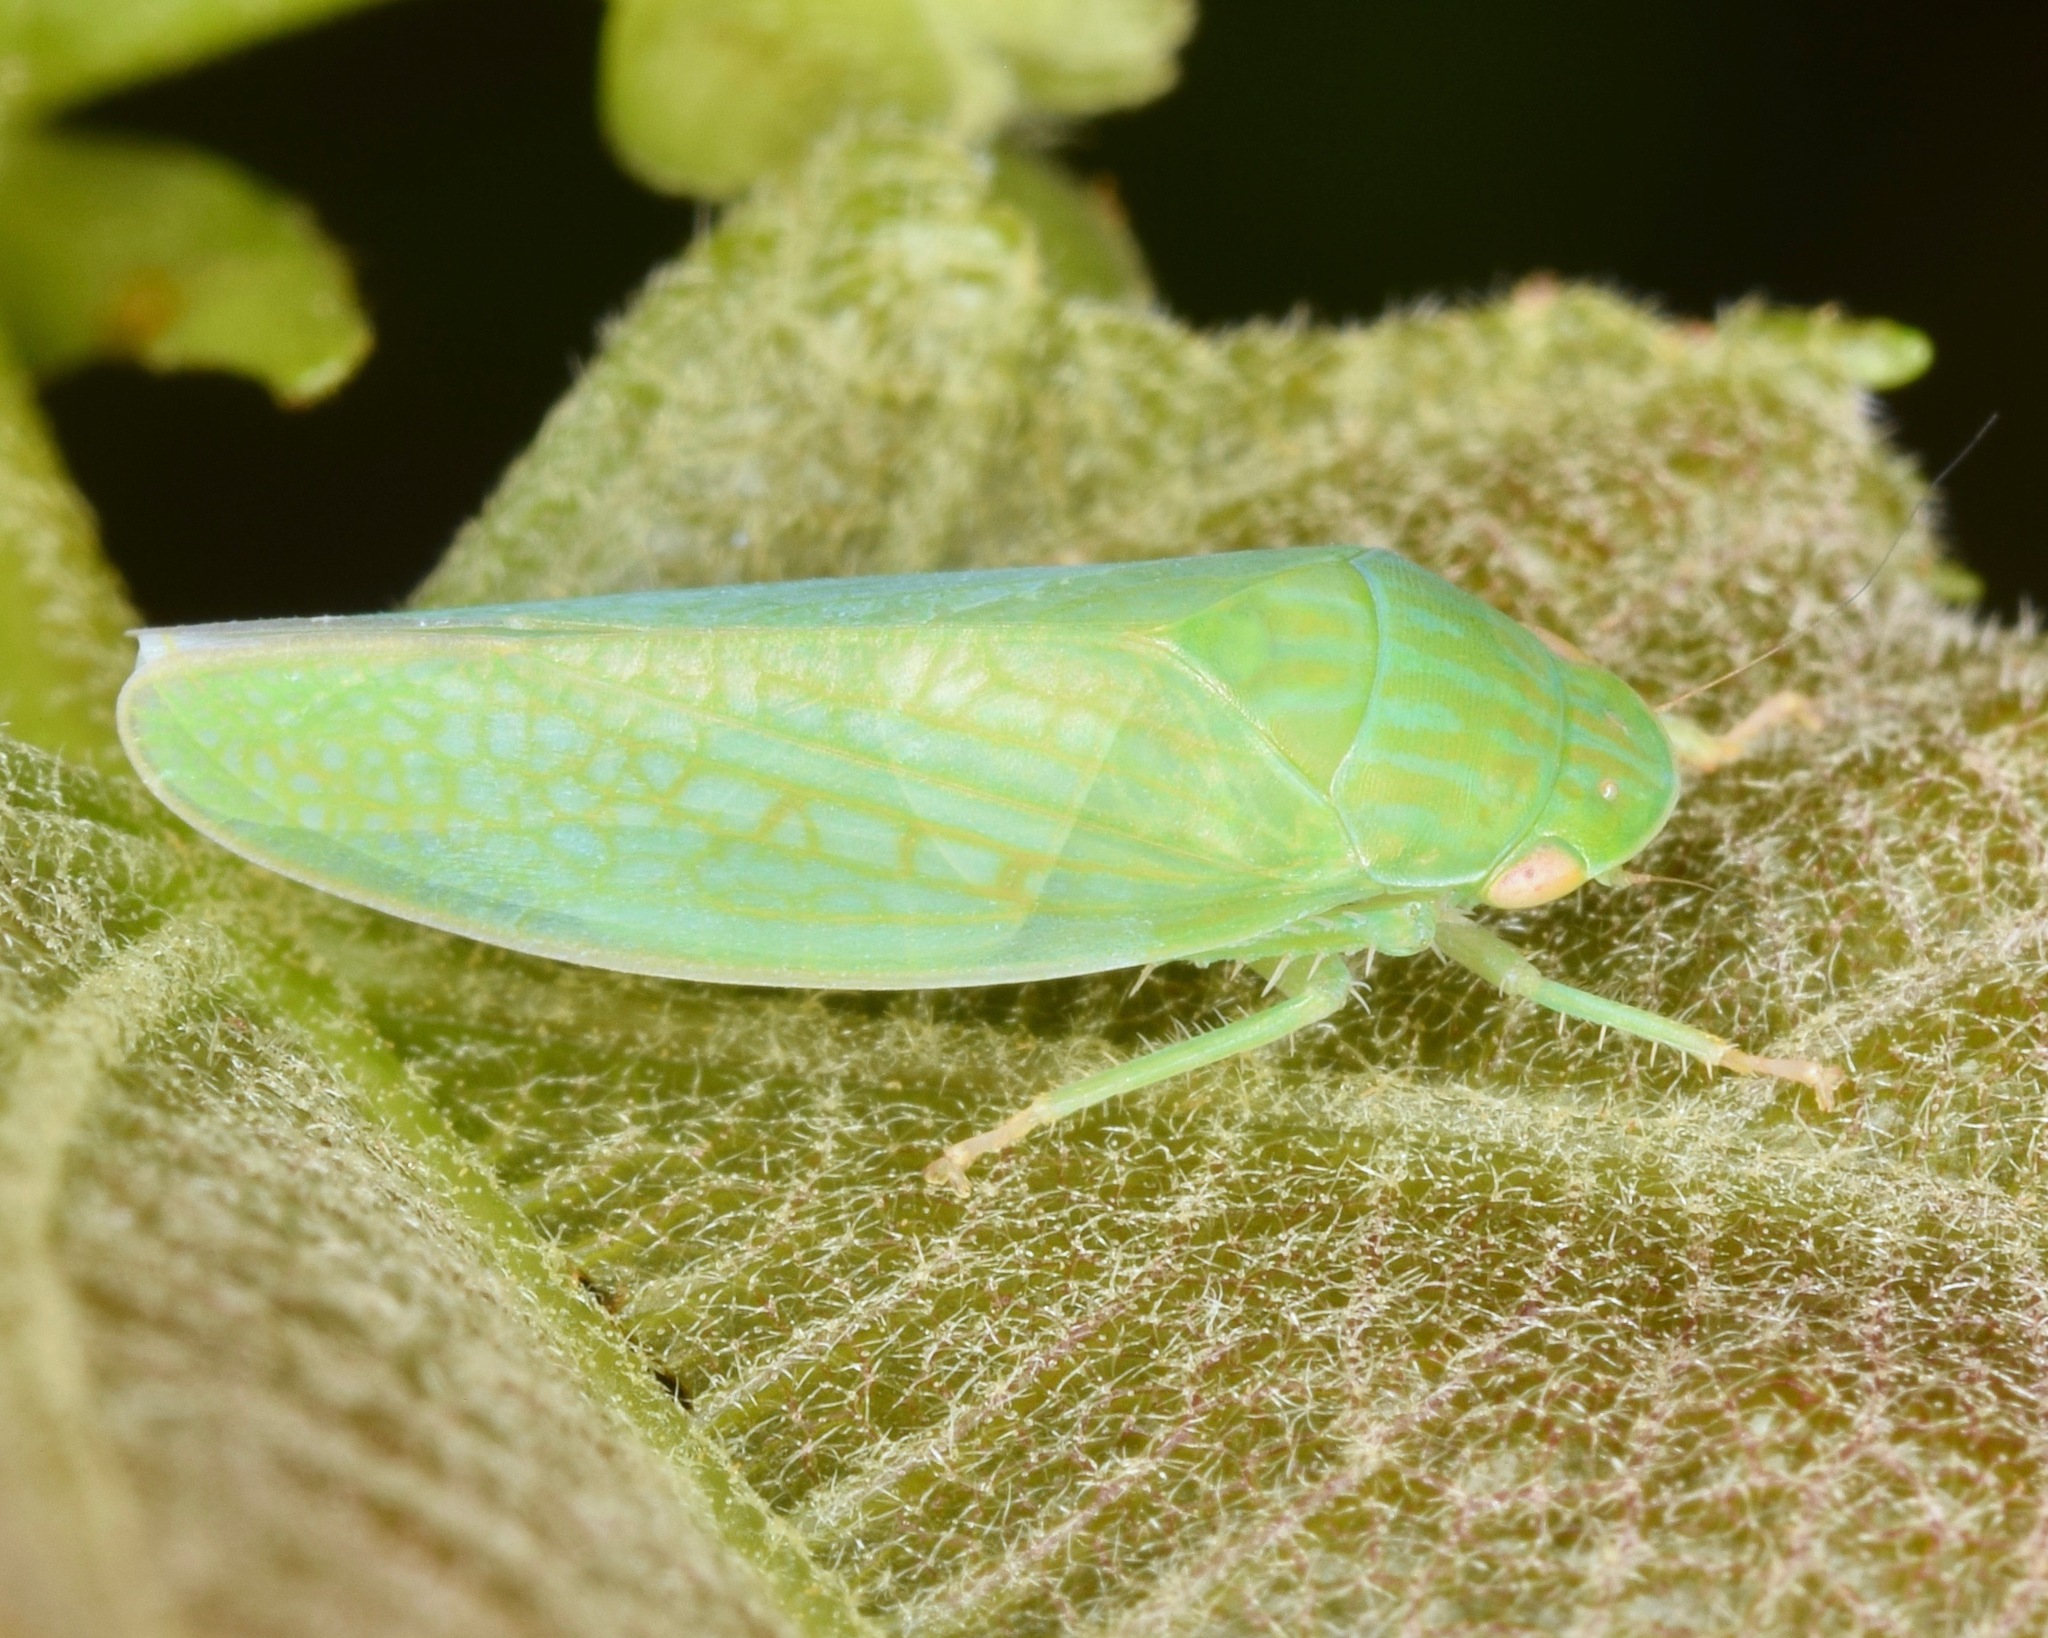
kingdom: Animalia
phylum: Arthropoda
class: Insecta
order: Hemiptera
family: Cicadellidae
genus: Gyponana
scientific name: Gyponana
